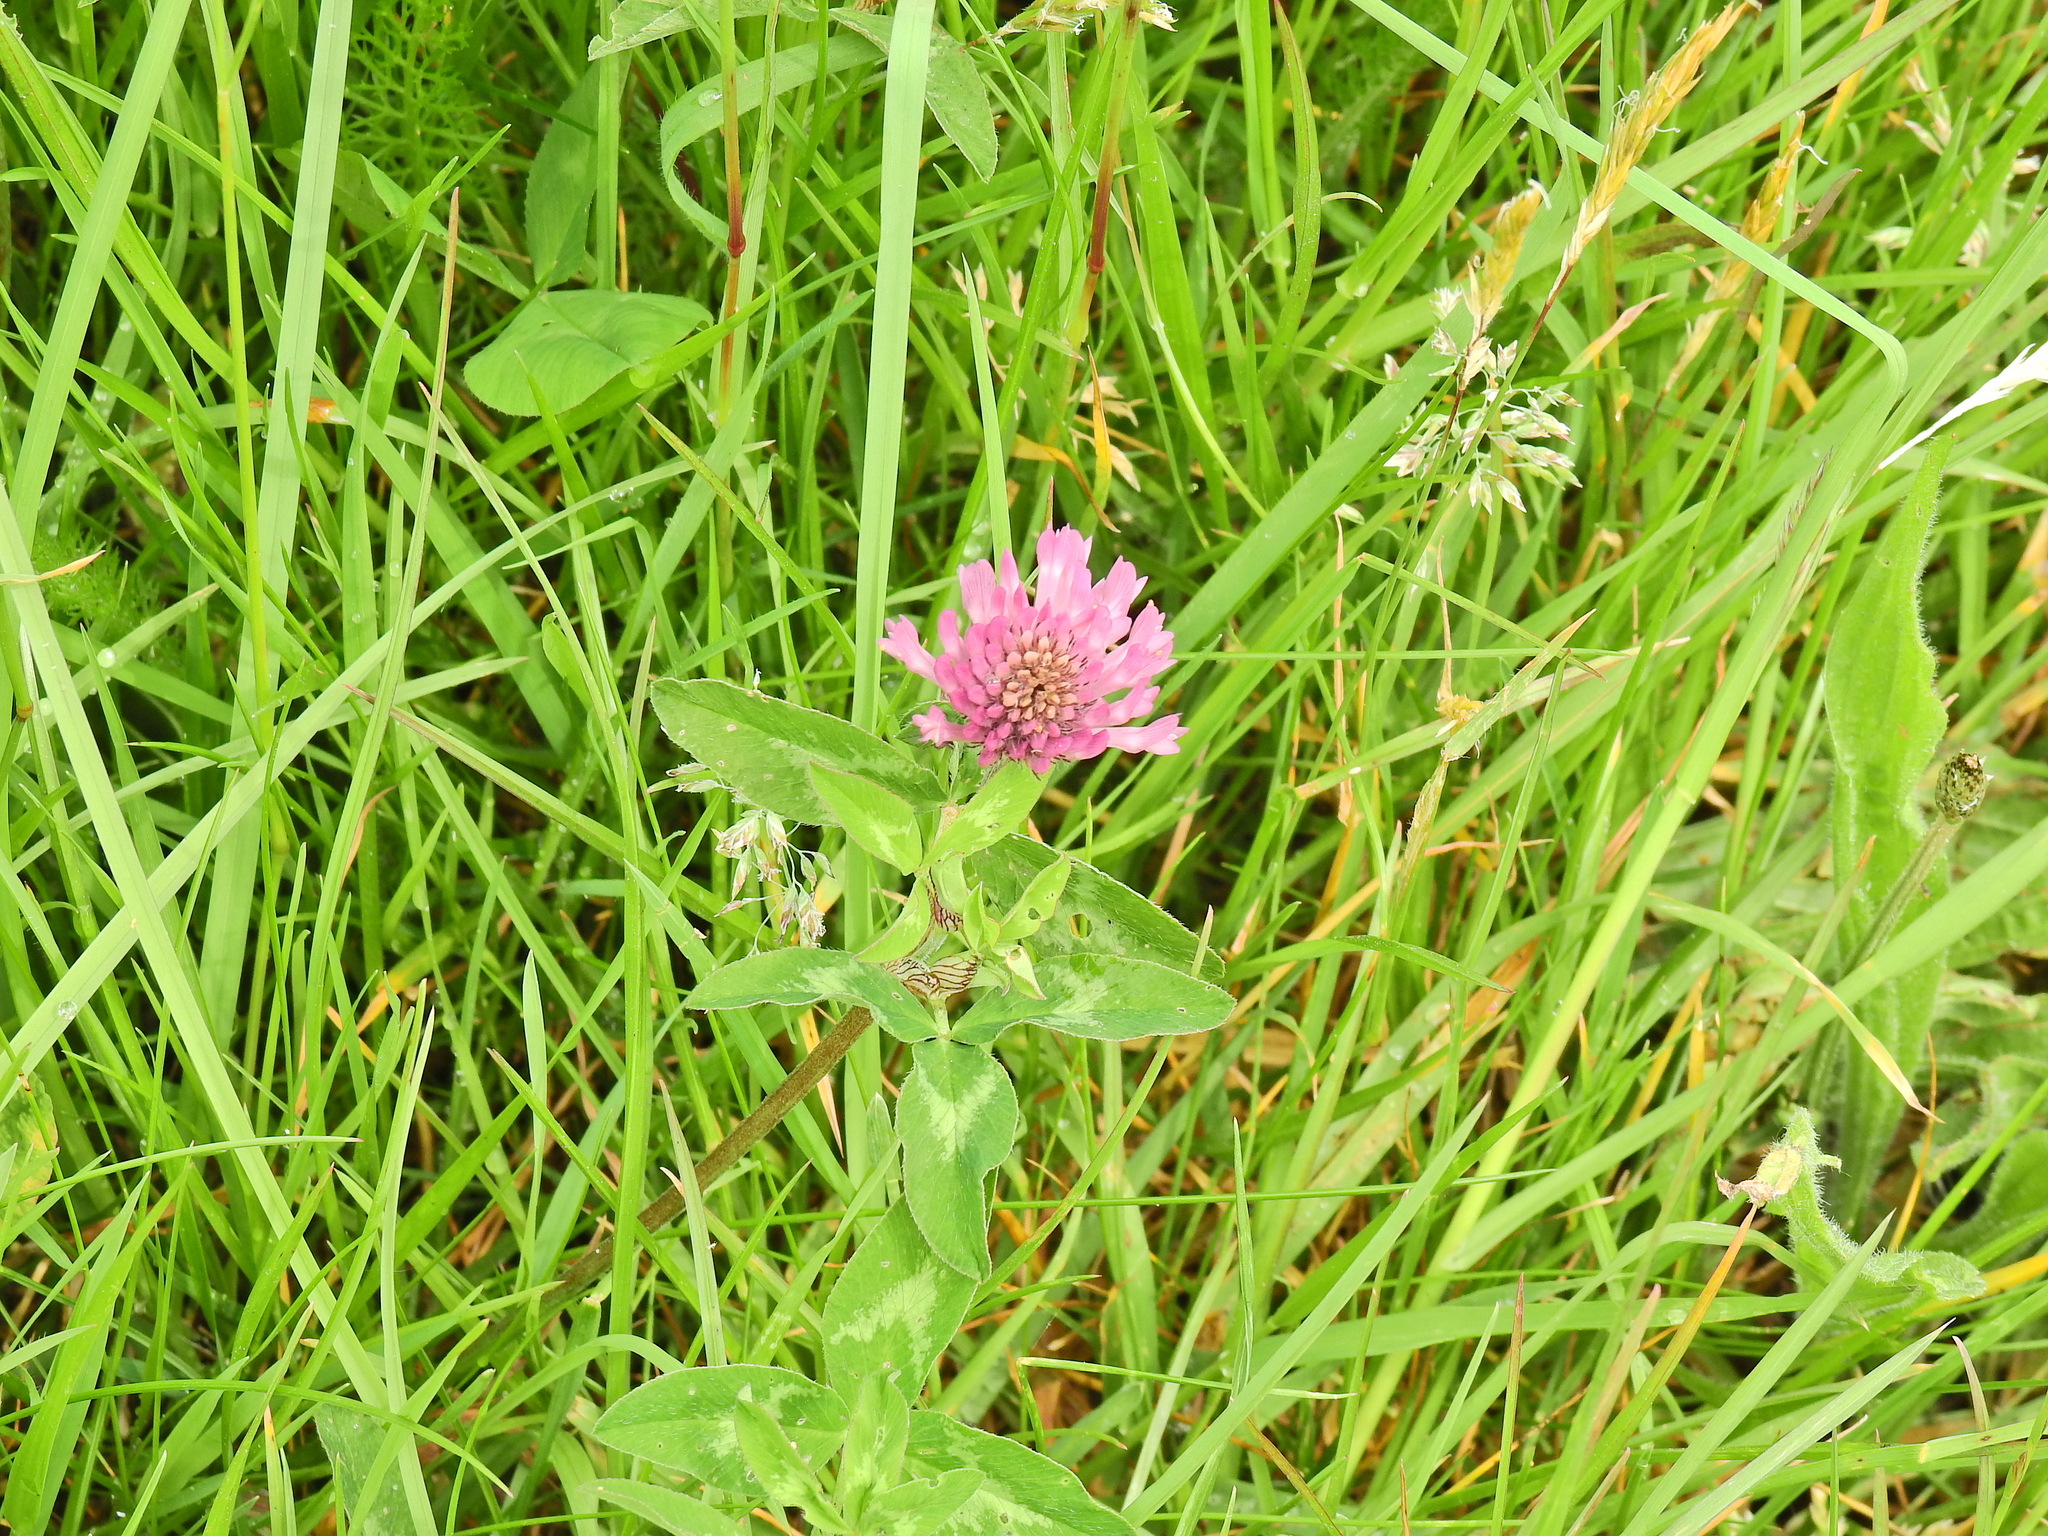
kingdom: Plantae
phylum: Tracheophyta
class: Magnoliopsida
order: Fabales
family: Fabaceae
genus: Trifolium
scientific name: Trifolium pratense
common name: Red clover
